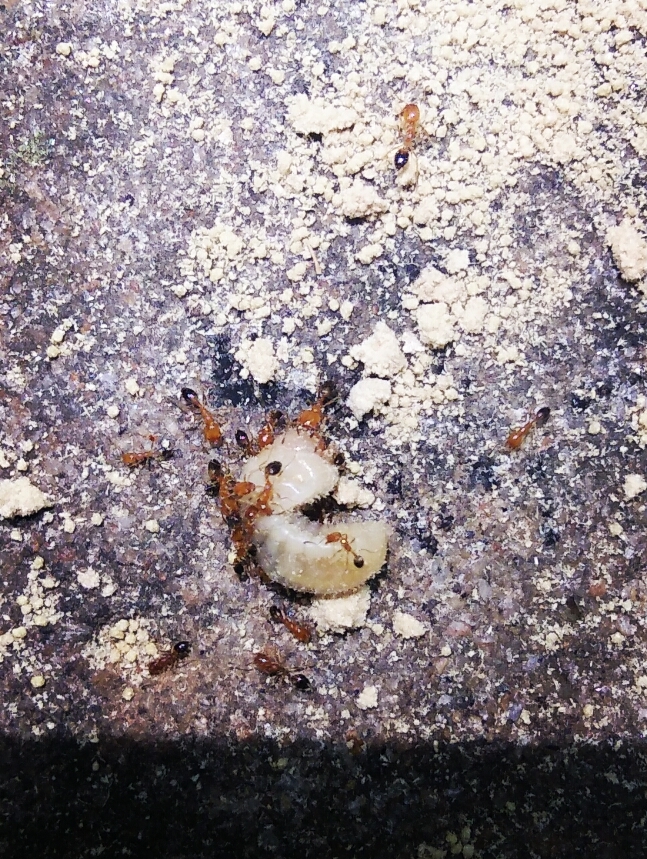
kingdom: Animalia
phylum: Arthropoda
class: Insecta
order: Hymenoptera
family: Formicidae
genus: Monomorium
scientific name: Monomorium destructor
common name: Destructive trailing ant
